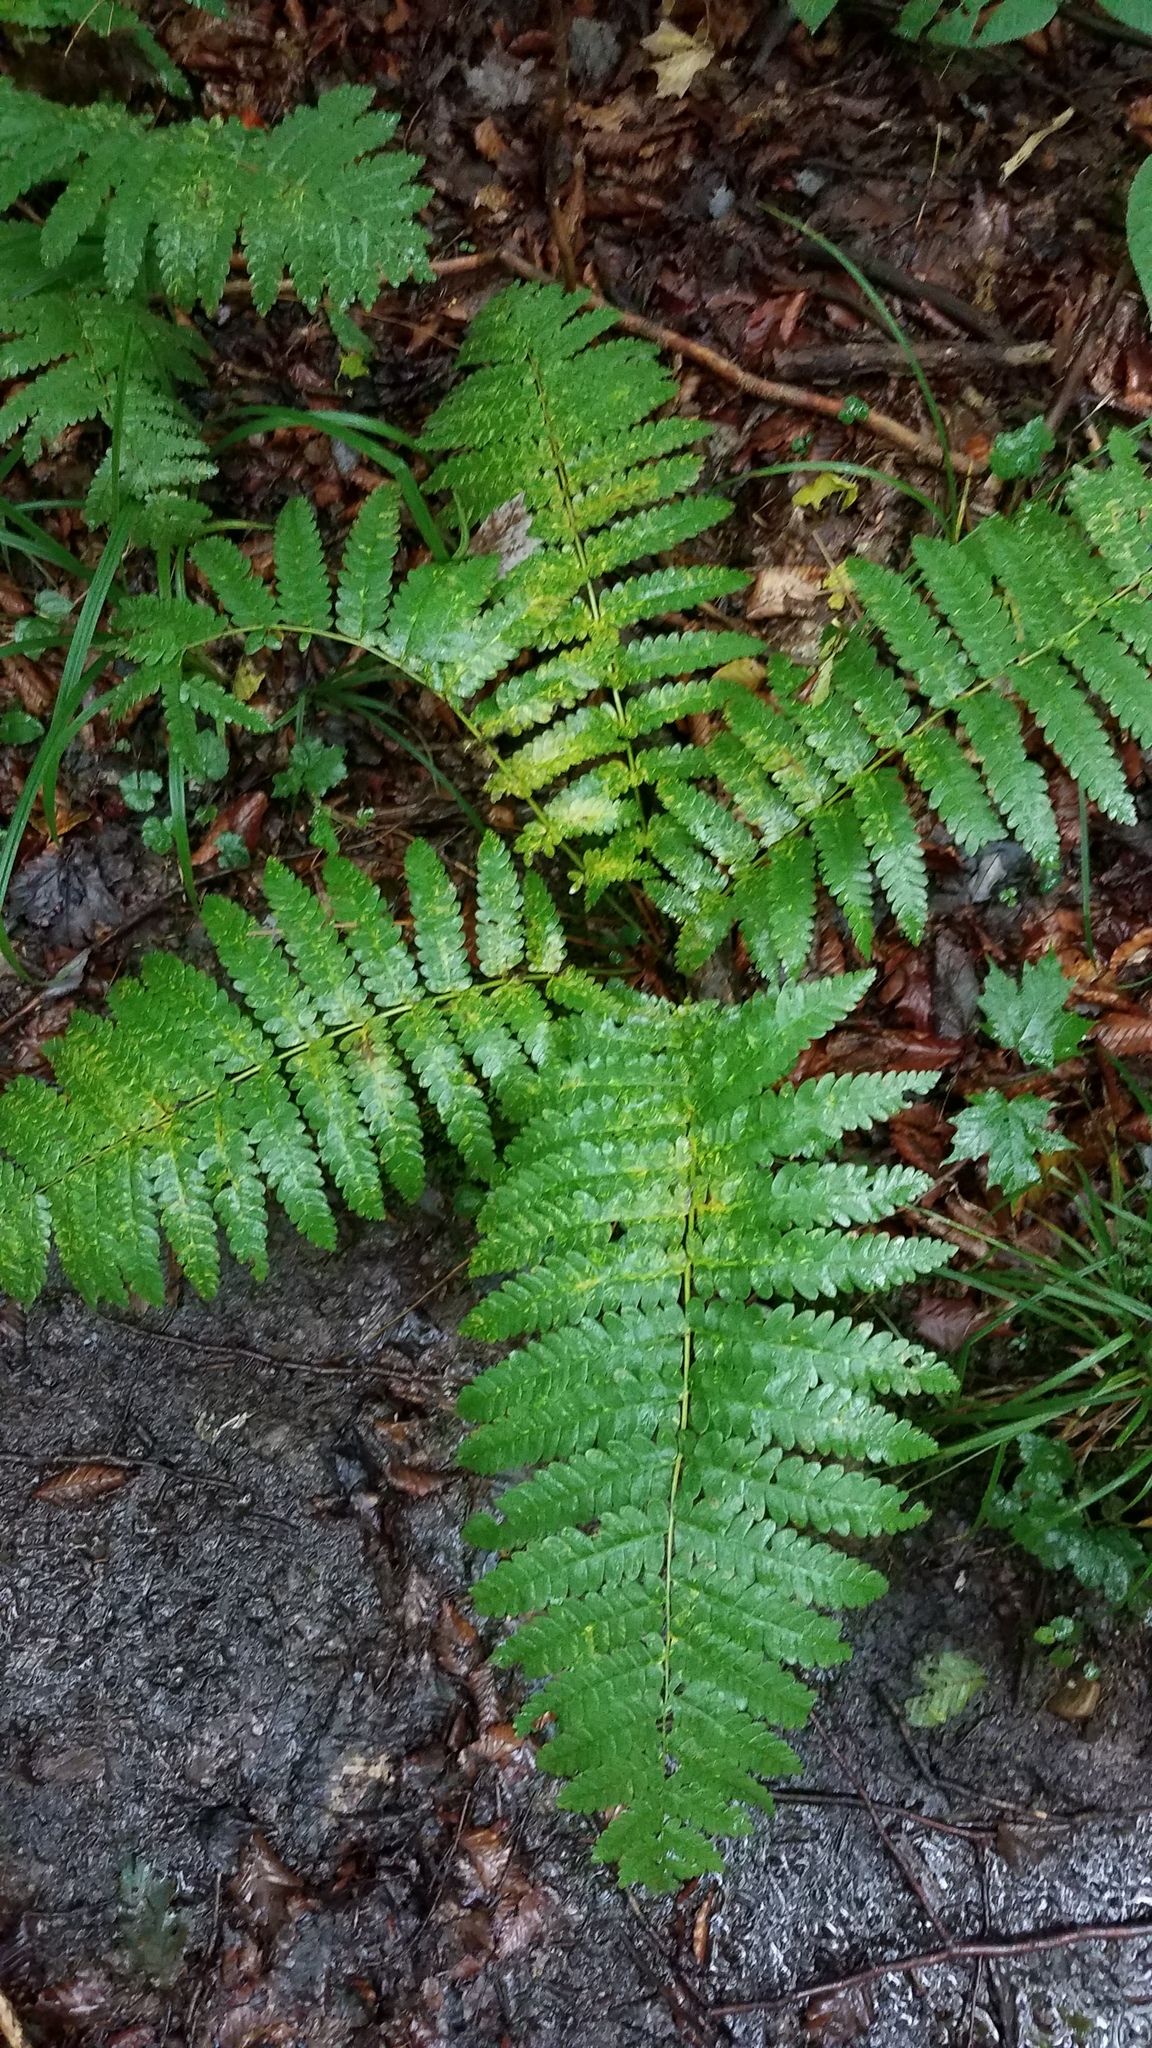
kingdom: Plantae
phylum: Tracheophyta
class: Polypodiopsida
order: Osmundales
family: Osmundaceae
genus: Osmundastrum
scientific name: Osmundastrum cinnamomeum
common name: Cinnamon fern
